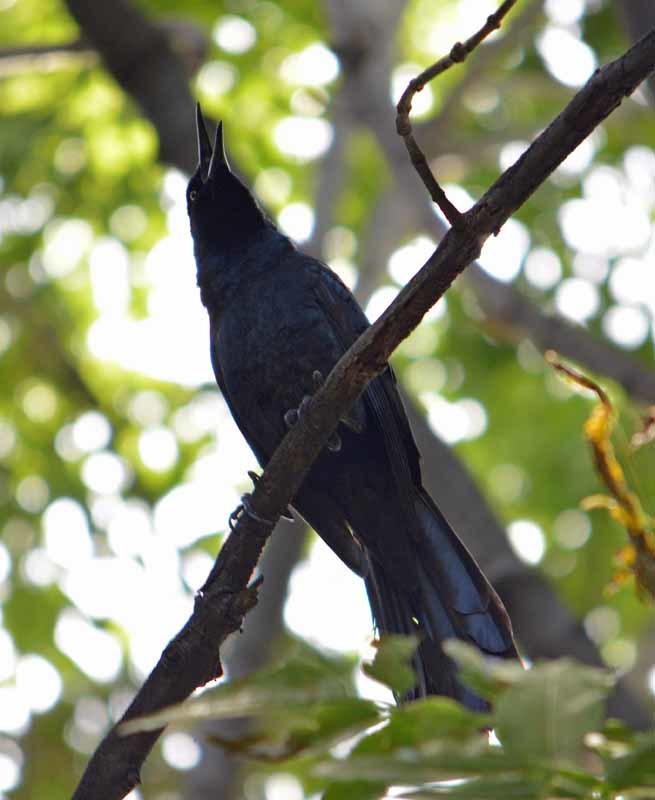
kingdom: Animalia
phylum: Chordata
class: Aves
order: Passeriformes
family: Icteridae
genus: Quiscalus
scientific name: Quiscalus mexicanus
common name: Great-tailed grackle
